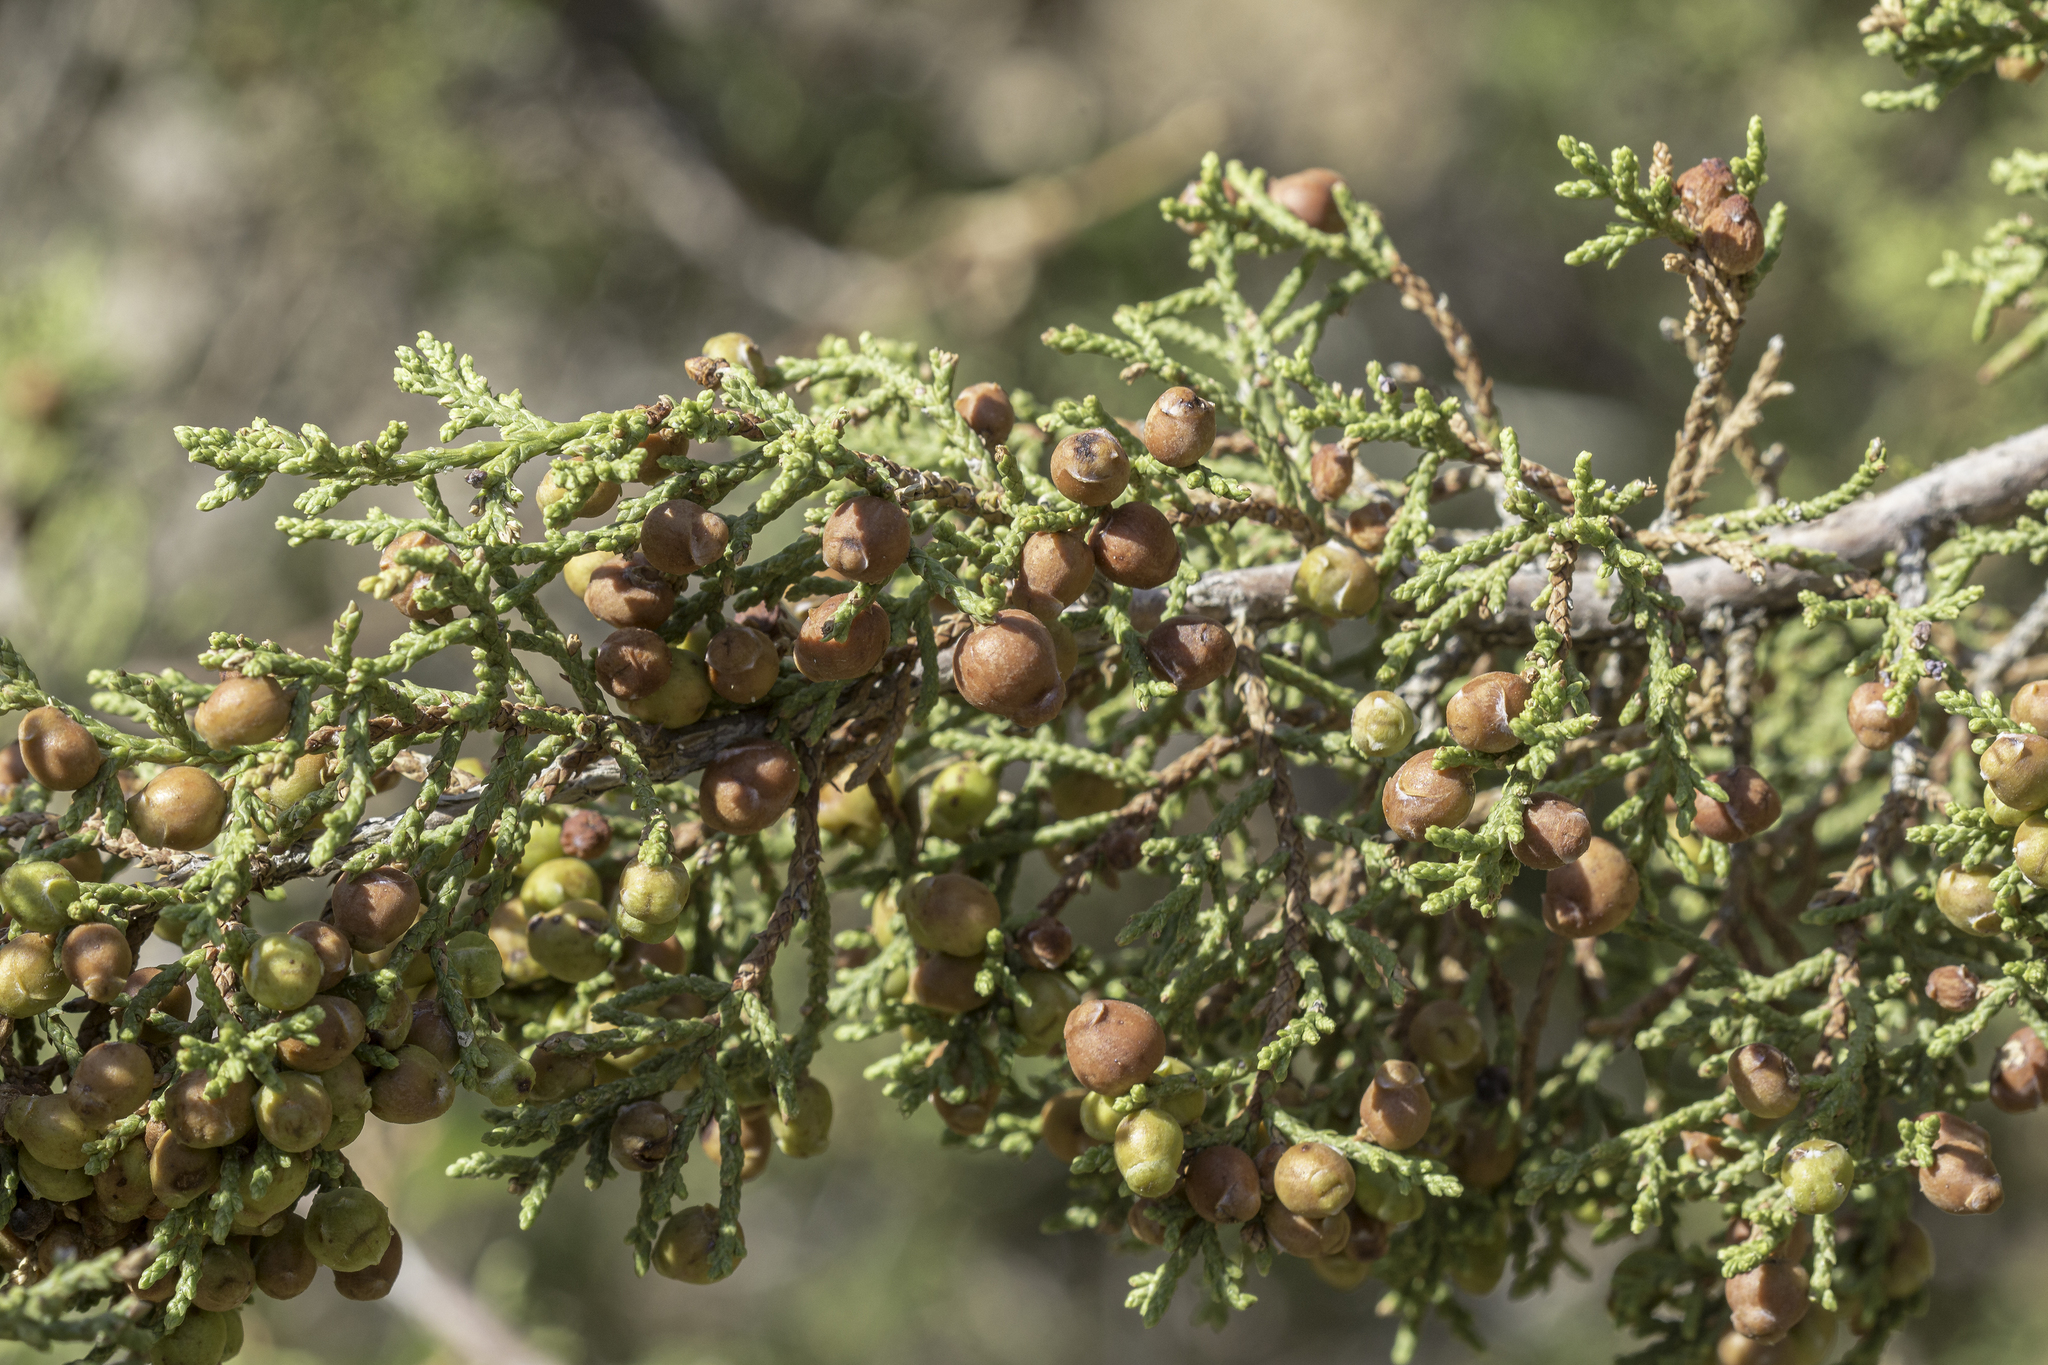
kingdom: Plantae
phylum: Tracheophyta
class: Pinopsida
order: Pinales
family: Cupressaceae
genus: Juniperus
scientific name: Juniperus pinchotii
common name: Pinchot juniper
